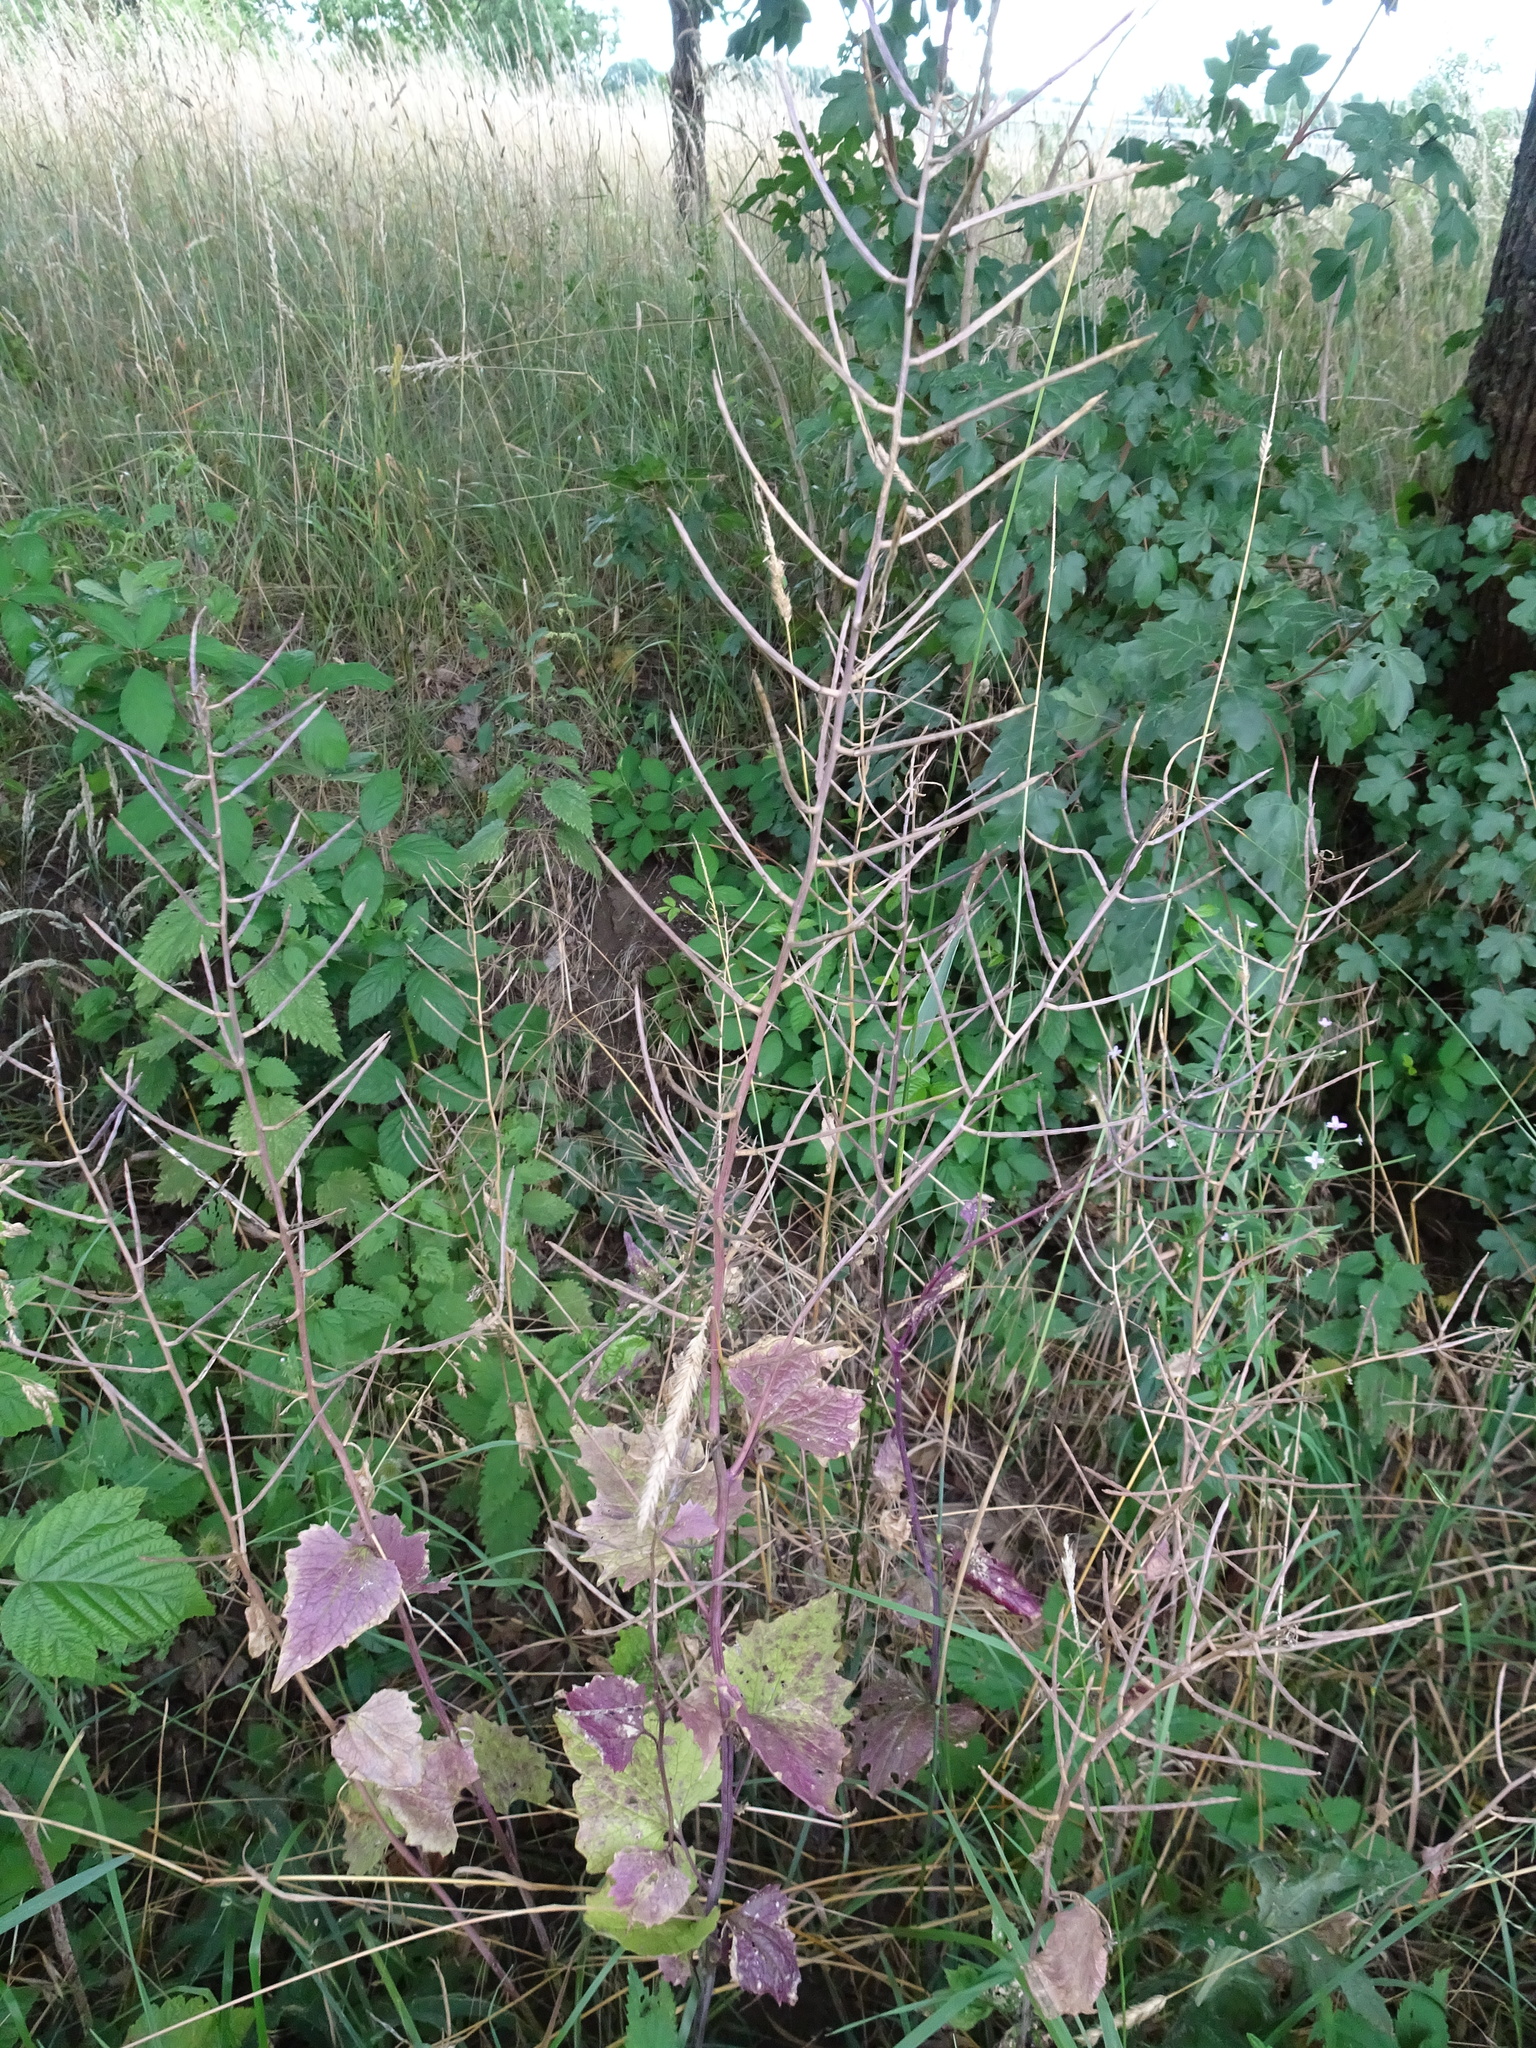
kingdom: Plantae
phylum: Tracheophyta
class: Magnoliopsida
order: Brassicales
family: Brassicaceae
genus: Alliaria
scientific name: Alliaria petiolata
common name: Garlic mustard
